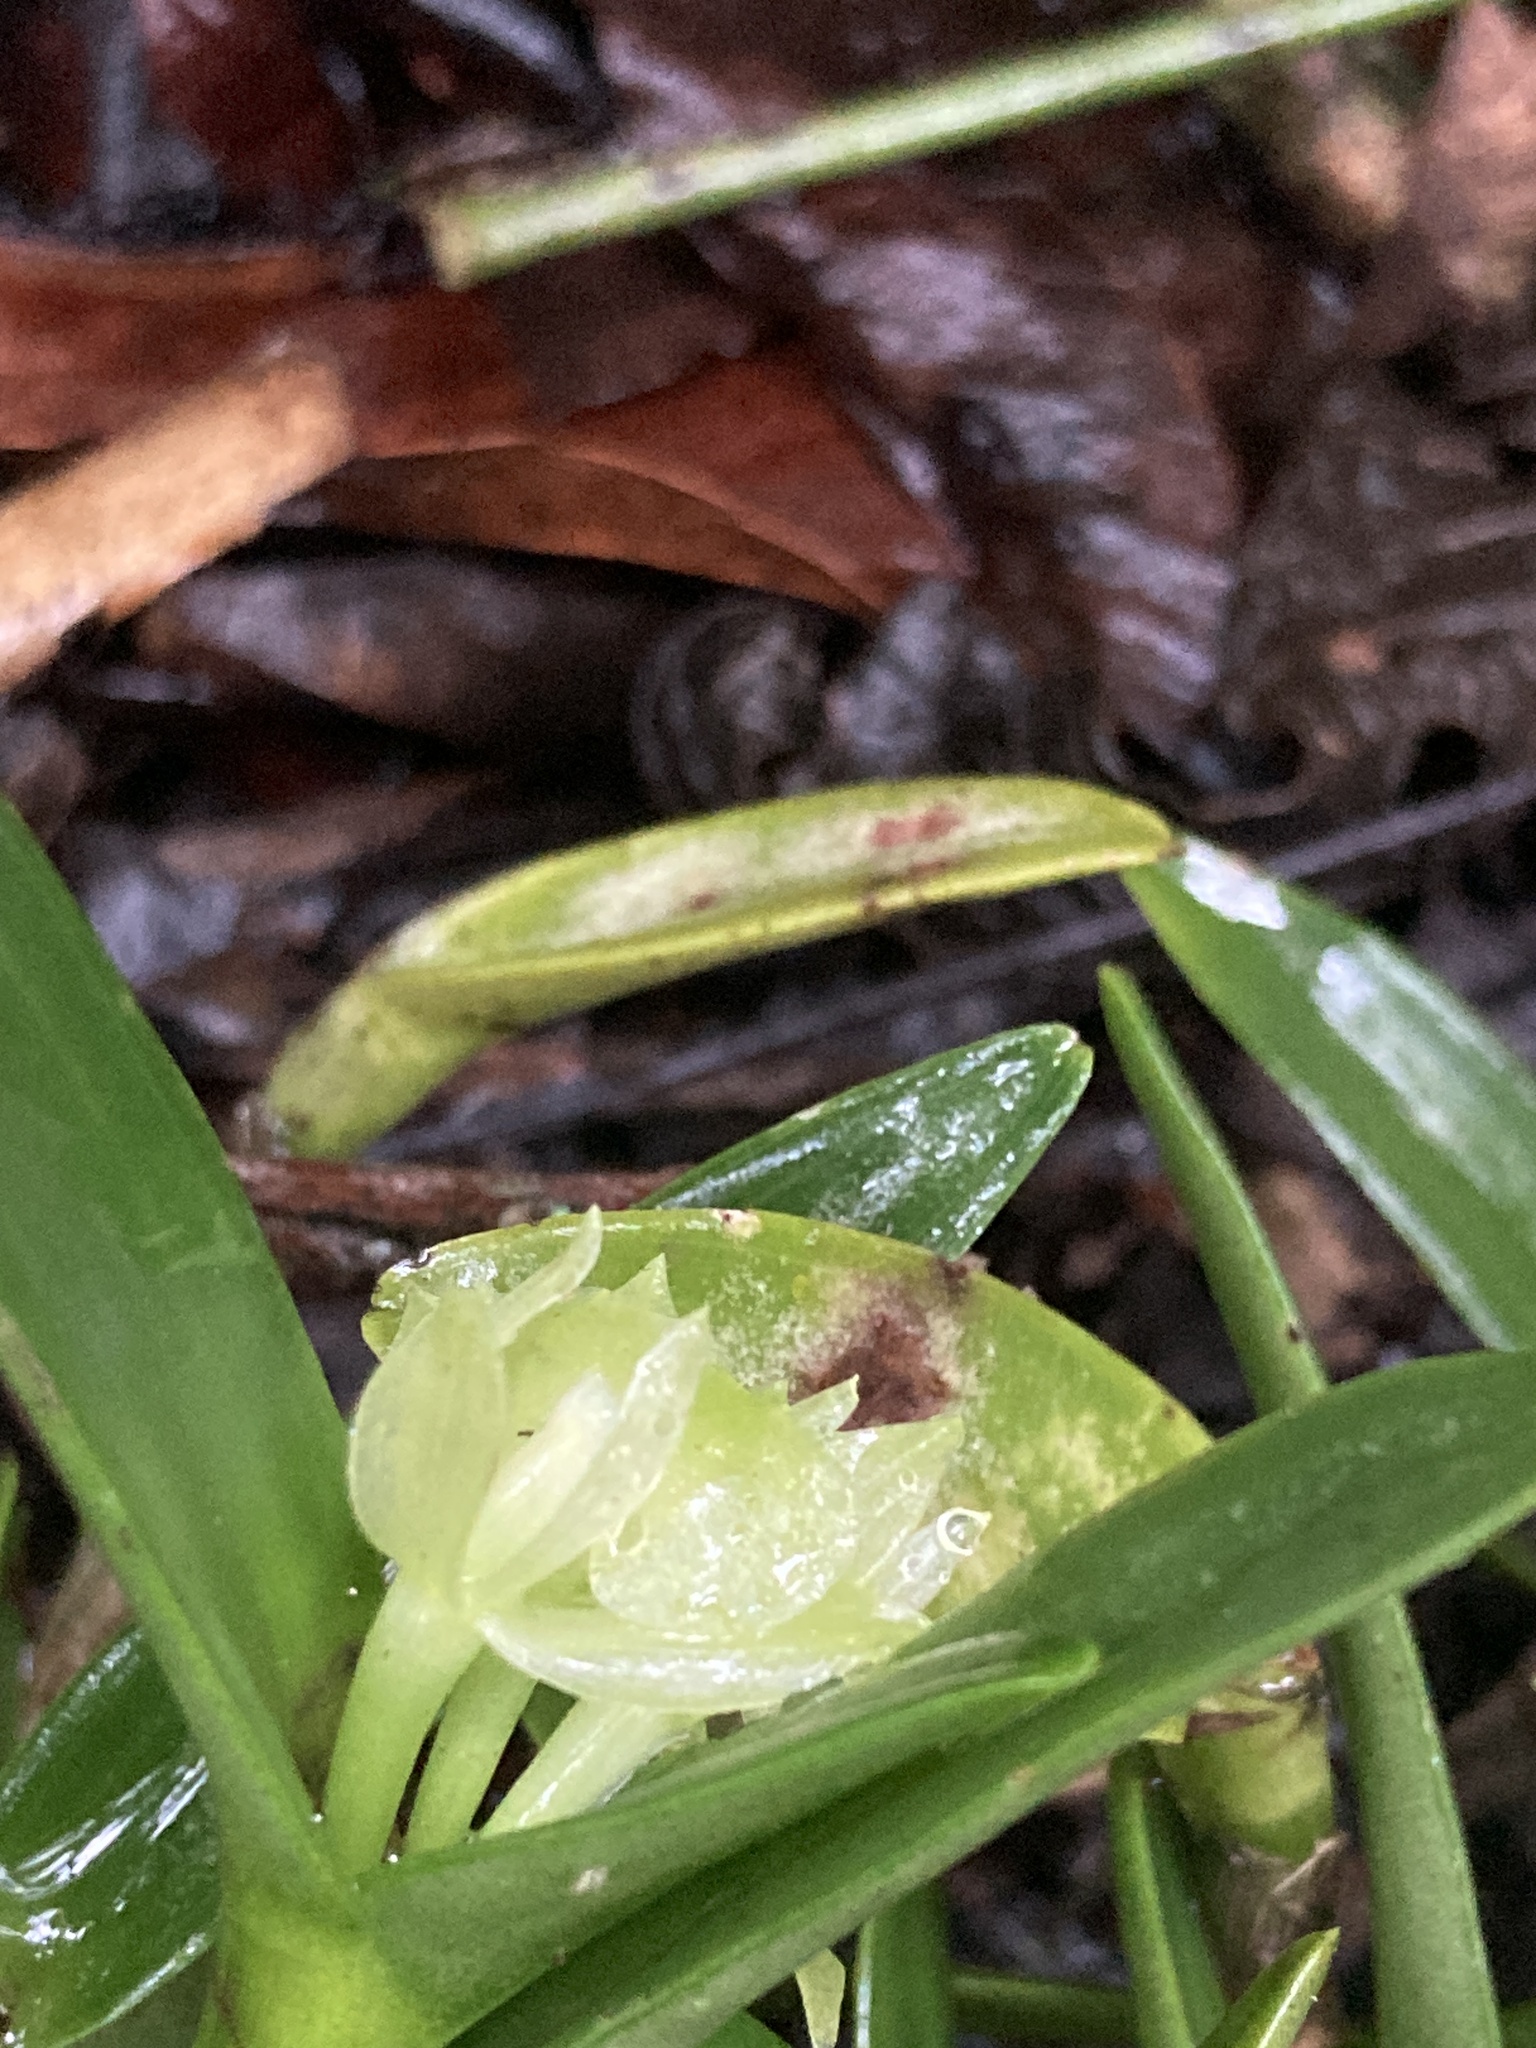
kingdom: Plantae
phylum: Tracheophyta
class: Liliopsida
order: Asparagales
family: Orchidaceae
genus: Epidendrum
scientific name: Epidendrum scharfii
